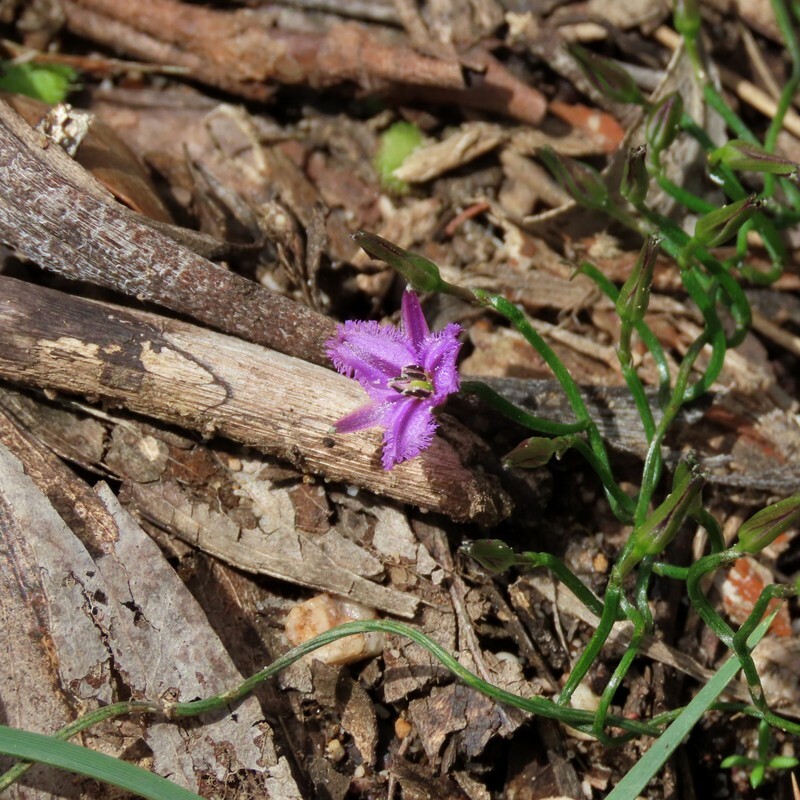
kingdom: Plantae
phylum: Tracheophyta
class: Liliopsida
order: Asparagales
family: Asparagaceae
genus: Thysanotus
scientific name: Thysanotus patersonii
